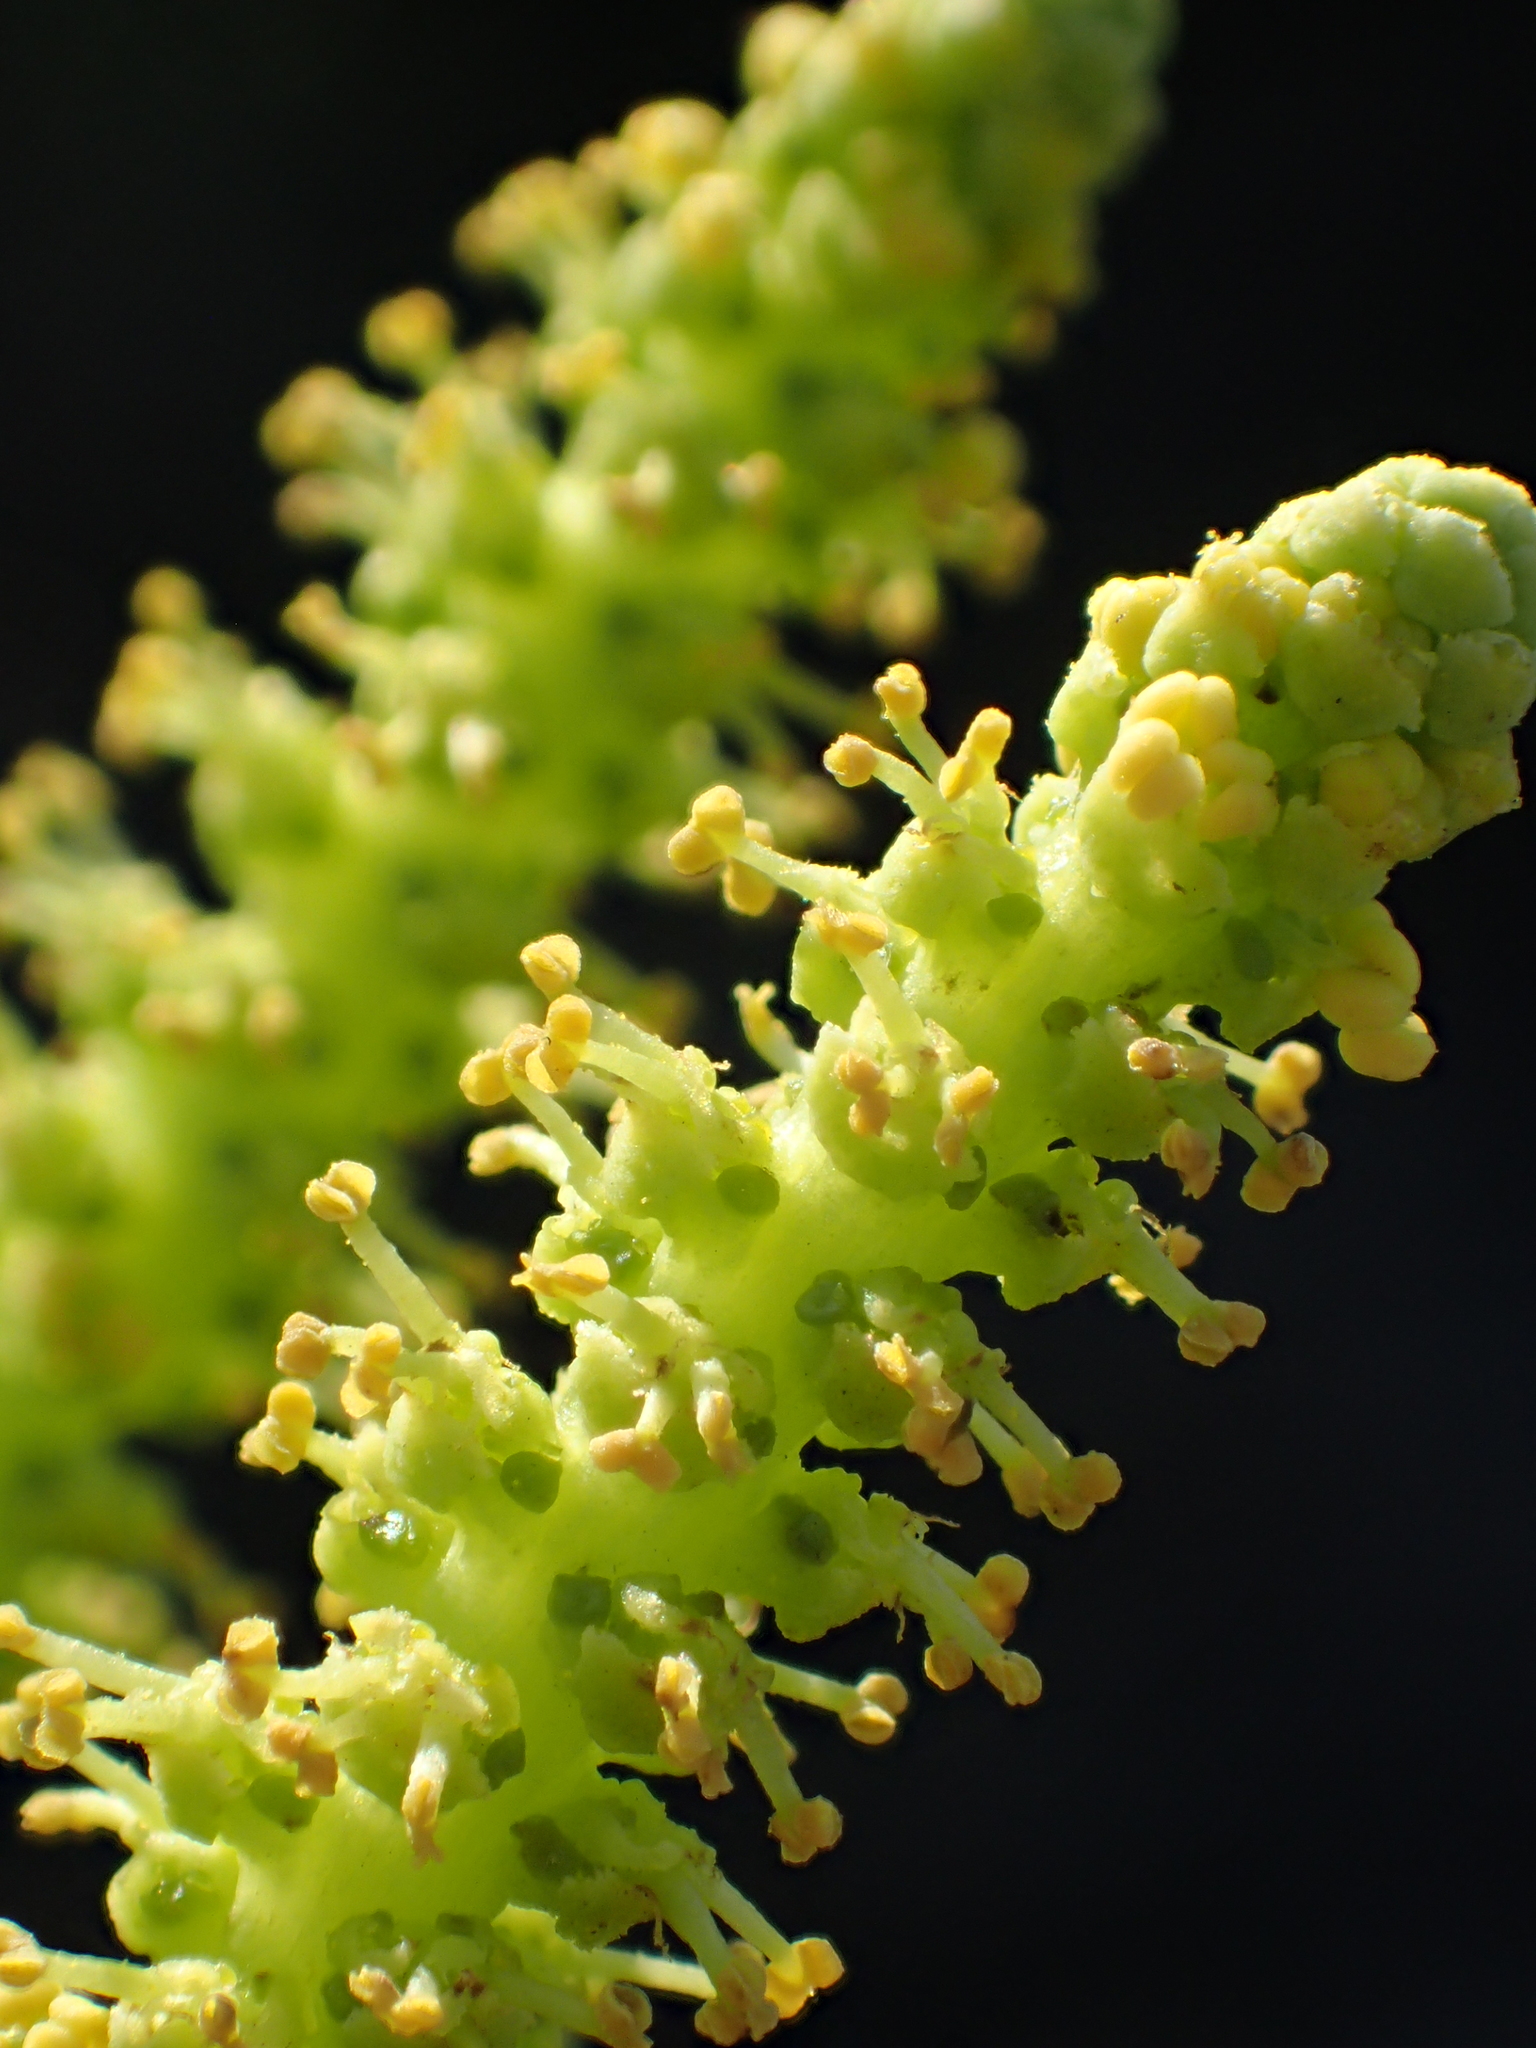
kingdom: Plantae
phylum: Tracheophyta
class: Magnoliopsida
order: Malpighiales
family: Euphorbiaceae
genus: Excoecaria
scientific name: Excoecaria agallocha
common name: River poisontree
